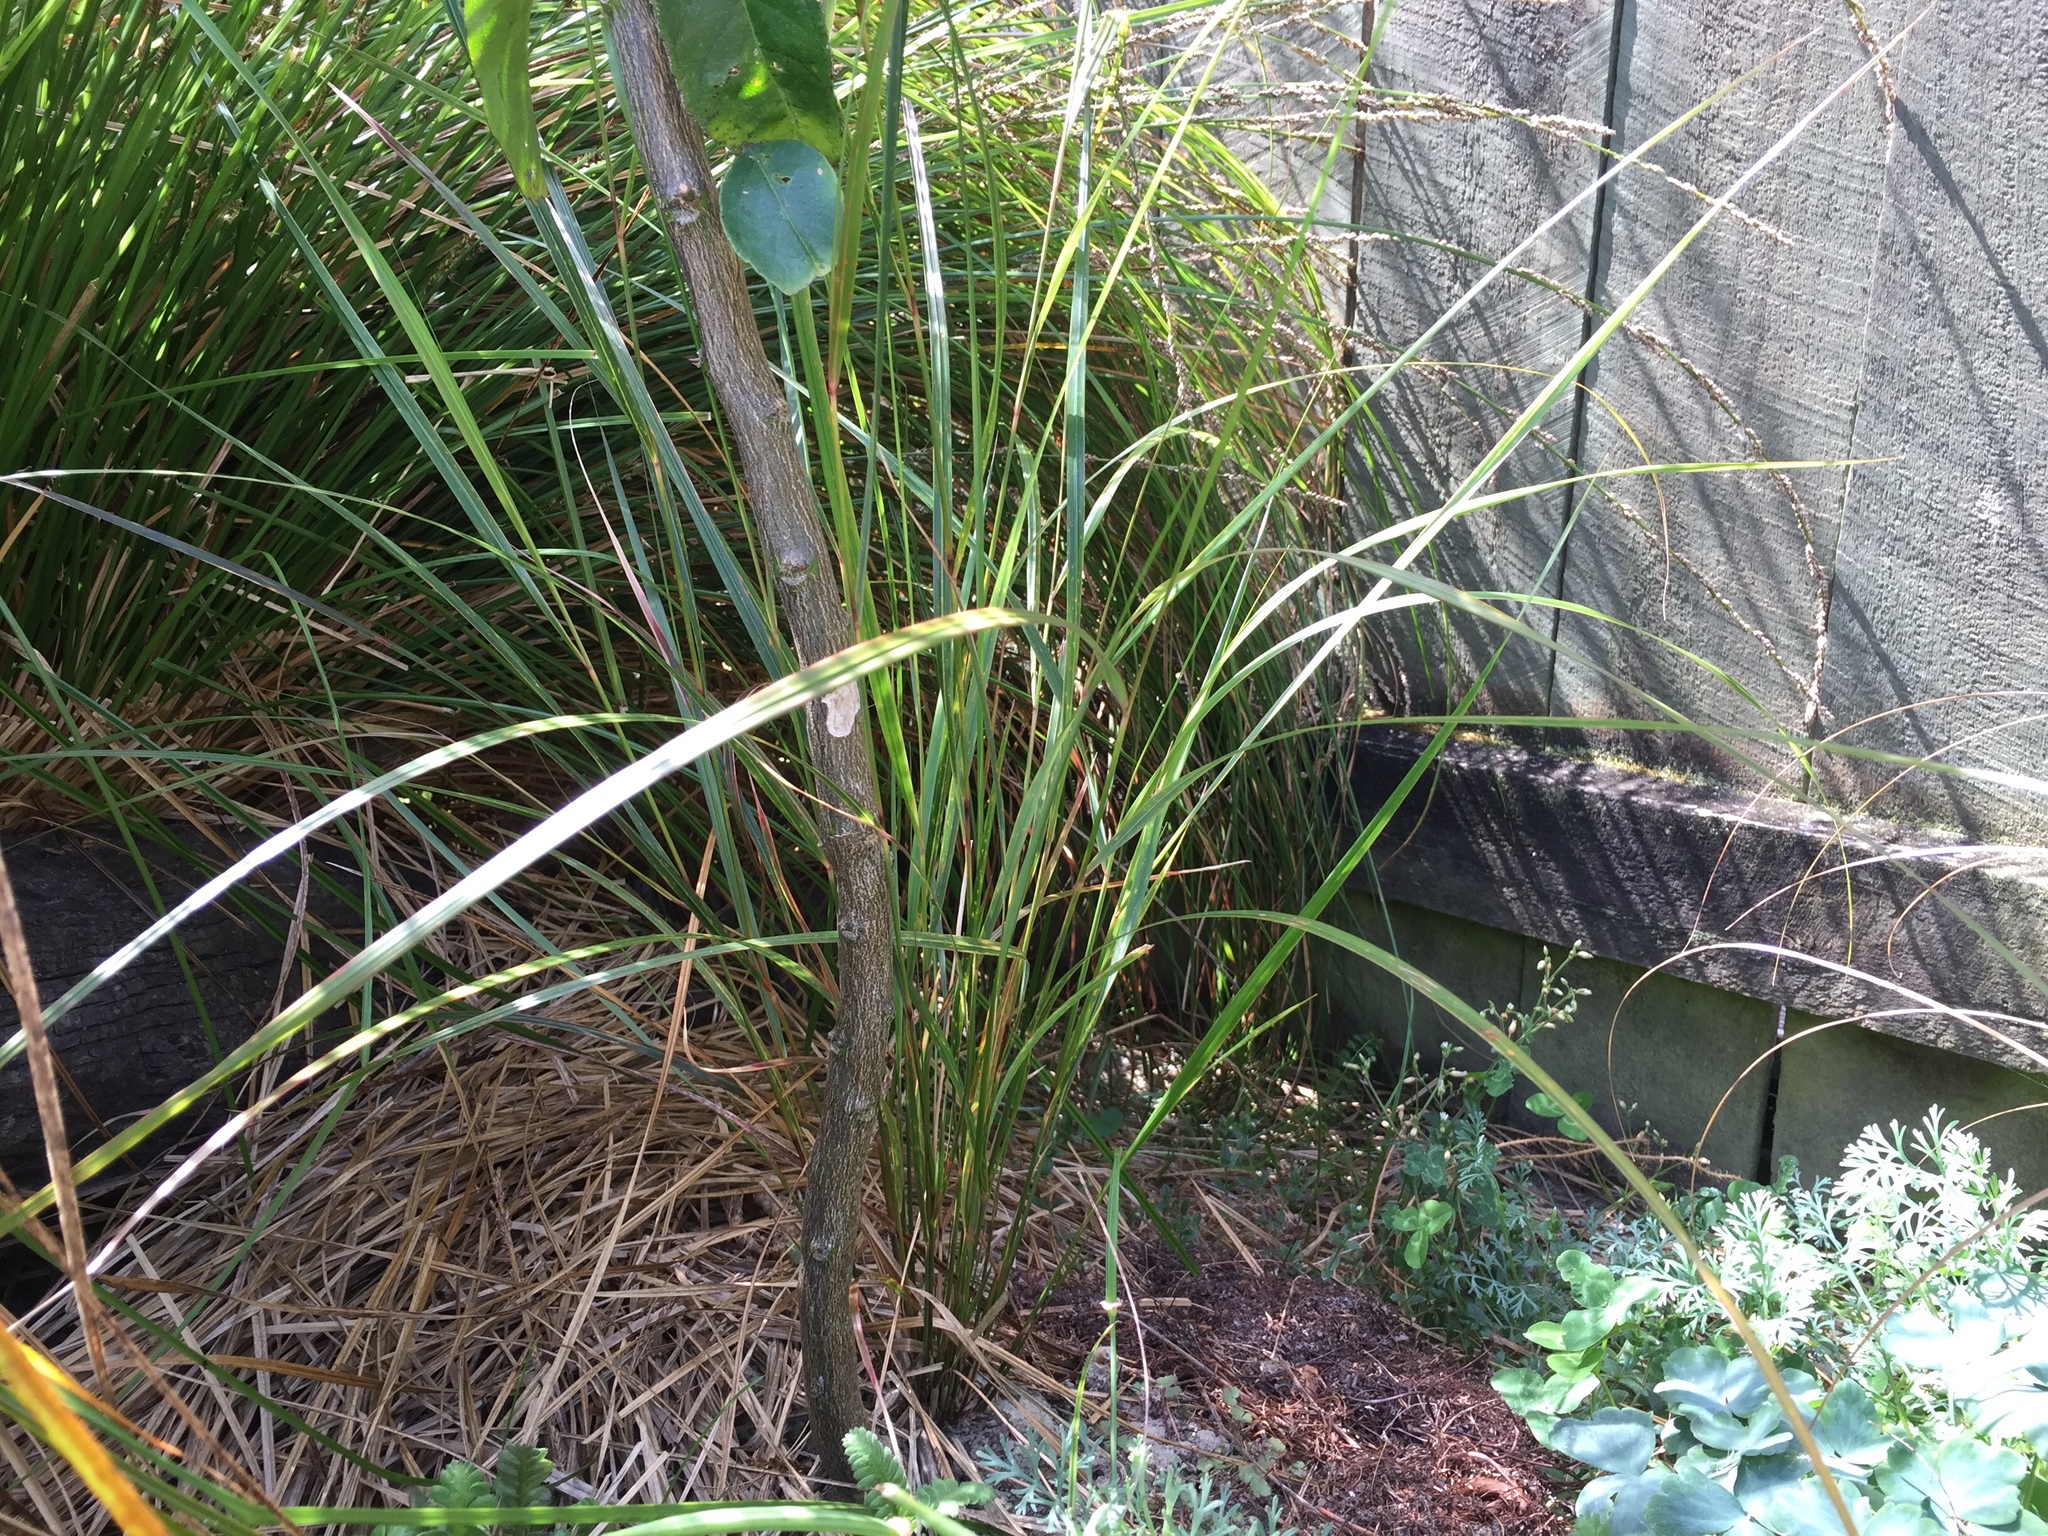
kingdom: Plantae
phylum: Tracheophyta
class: Liliopsida
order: Poales
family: Poaceae
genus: Anemanthele
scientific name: Anemanthele lessoniana
